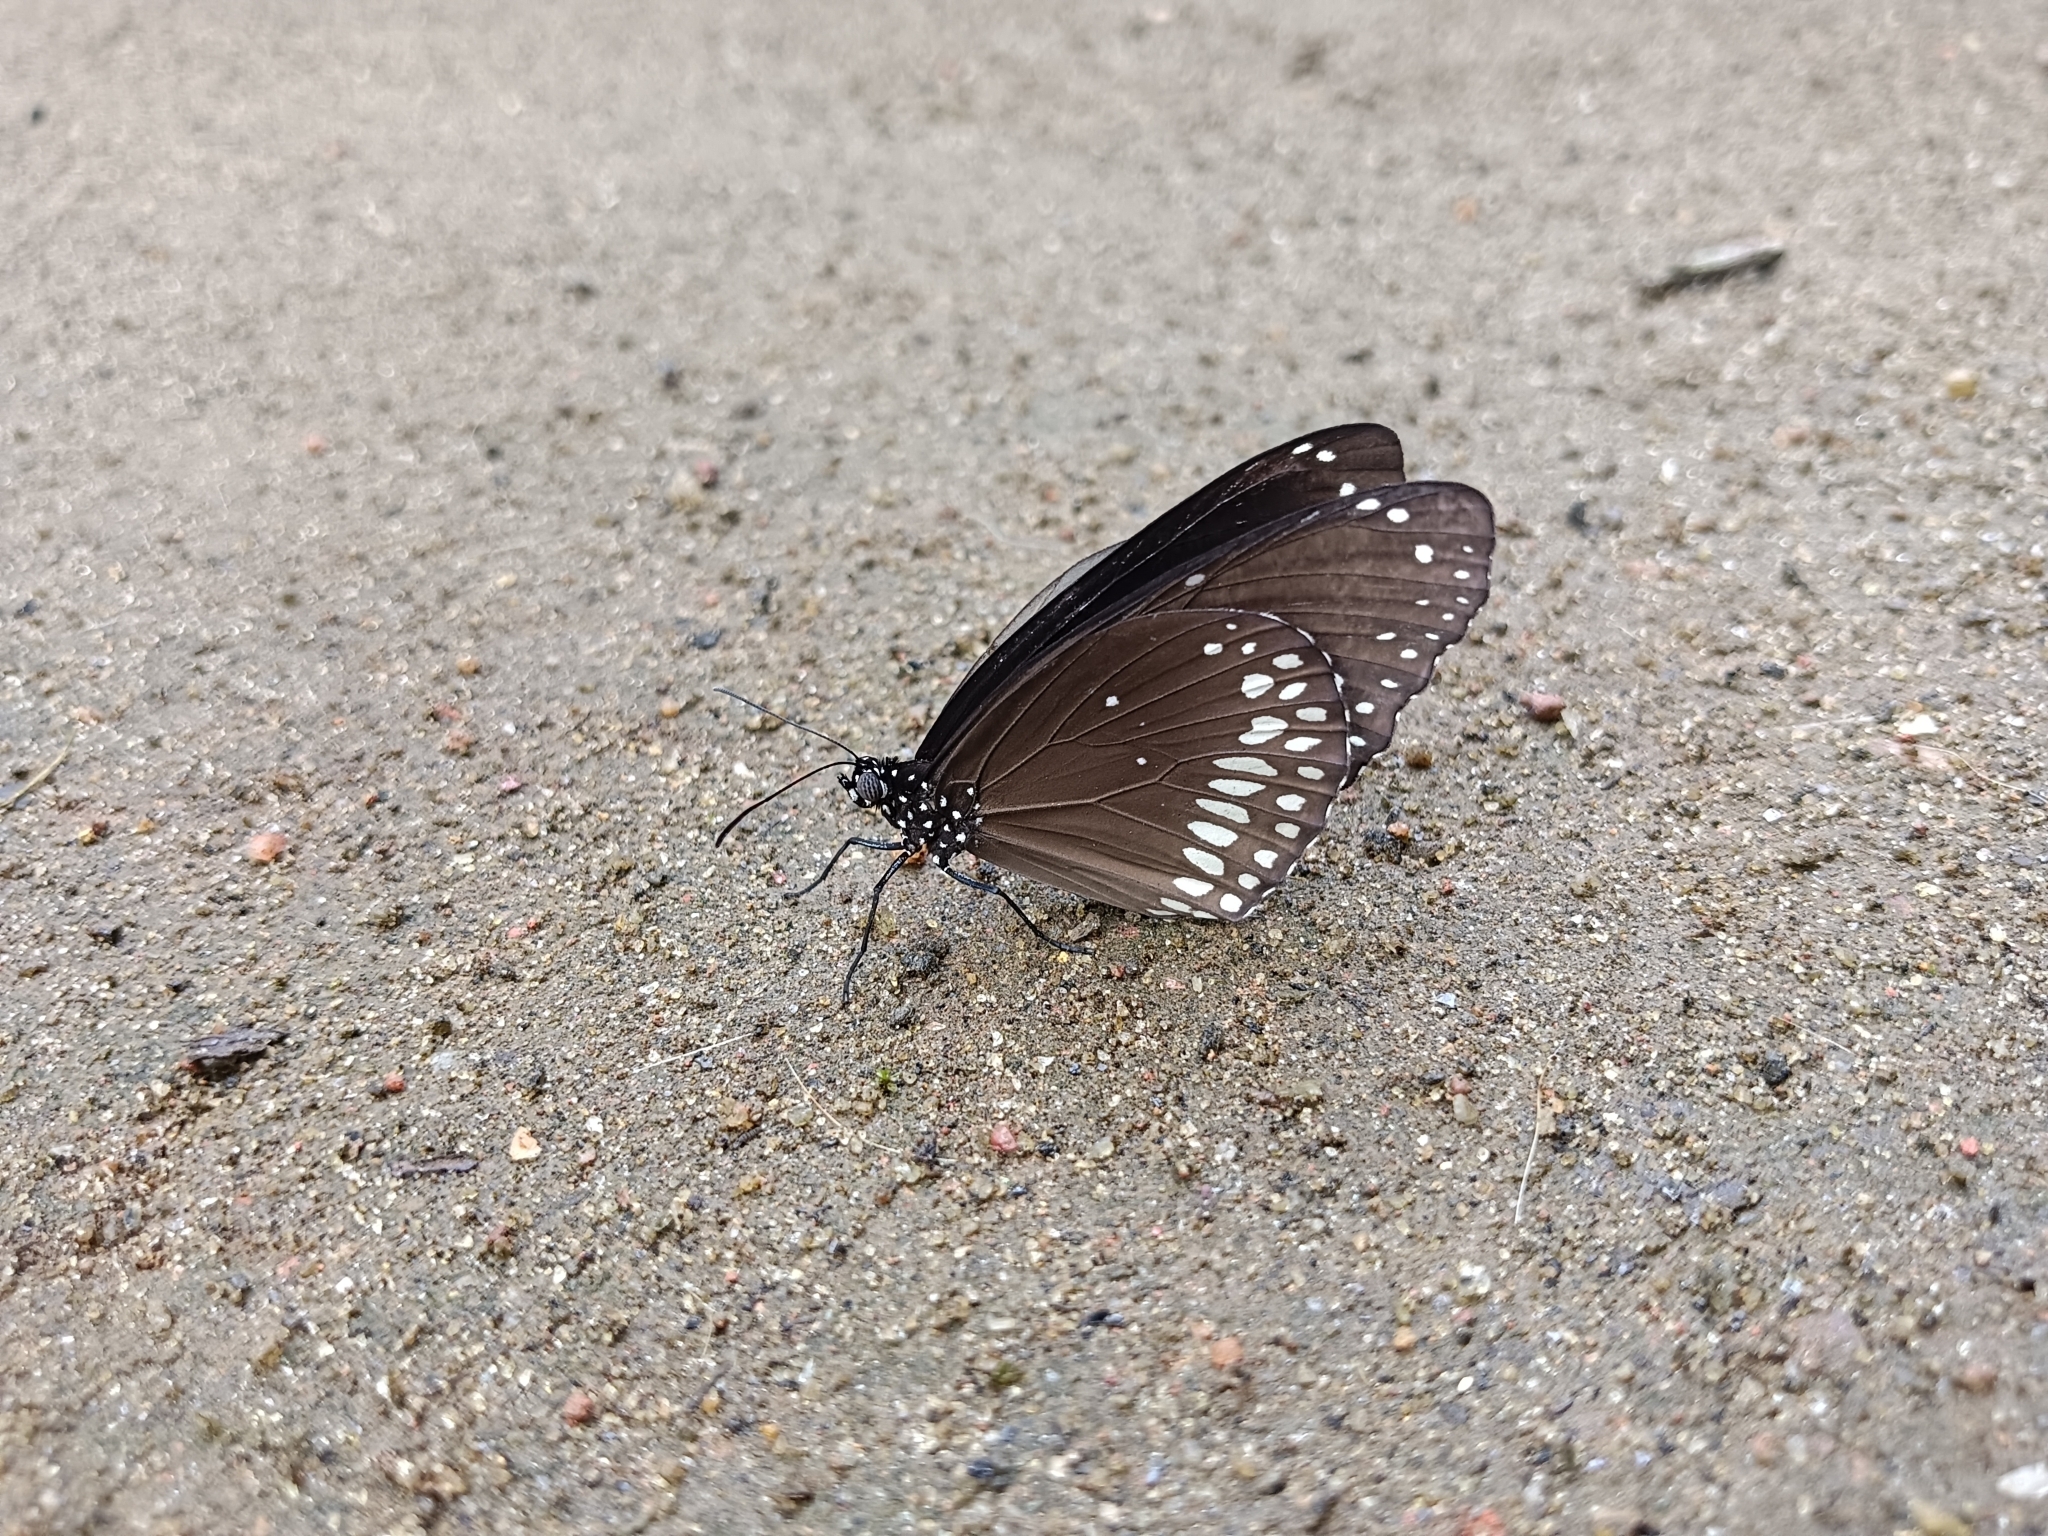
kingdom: Animalia
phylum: Arthropoda
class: Insecta
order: Lepidoptera
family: Nymphalidae
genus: Euploea
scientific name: Euploea core
